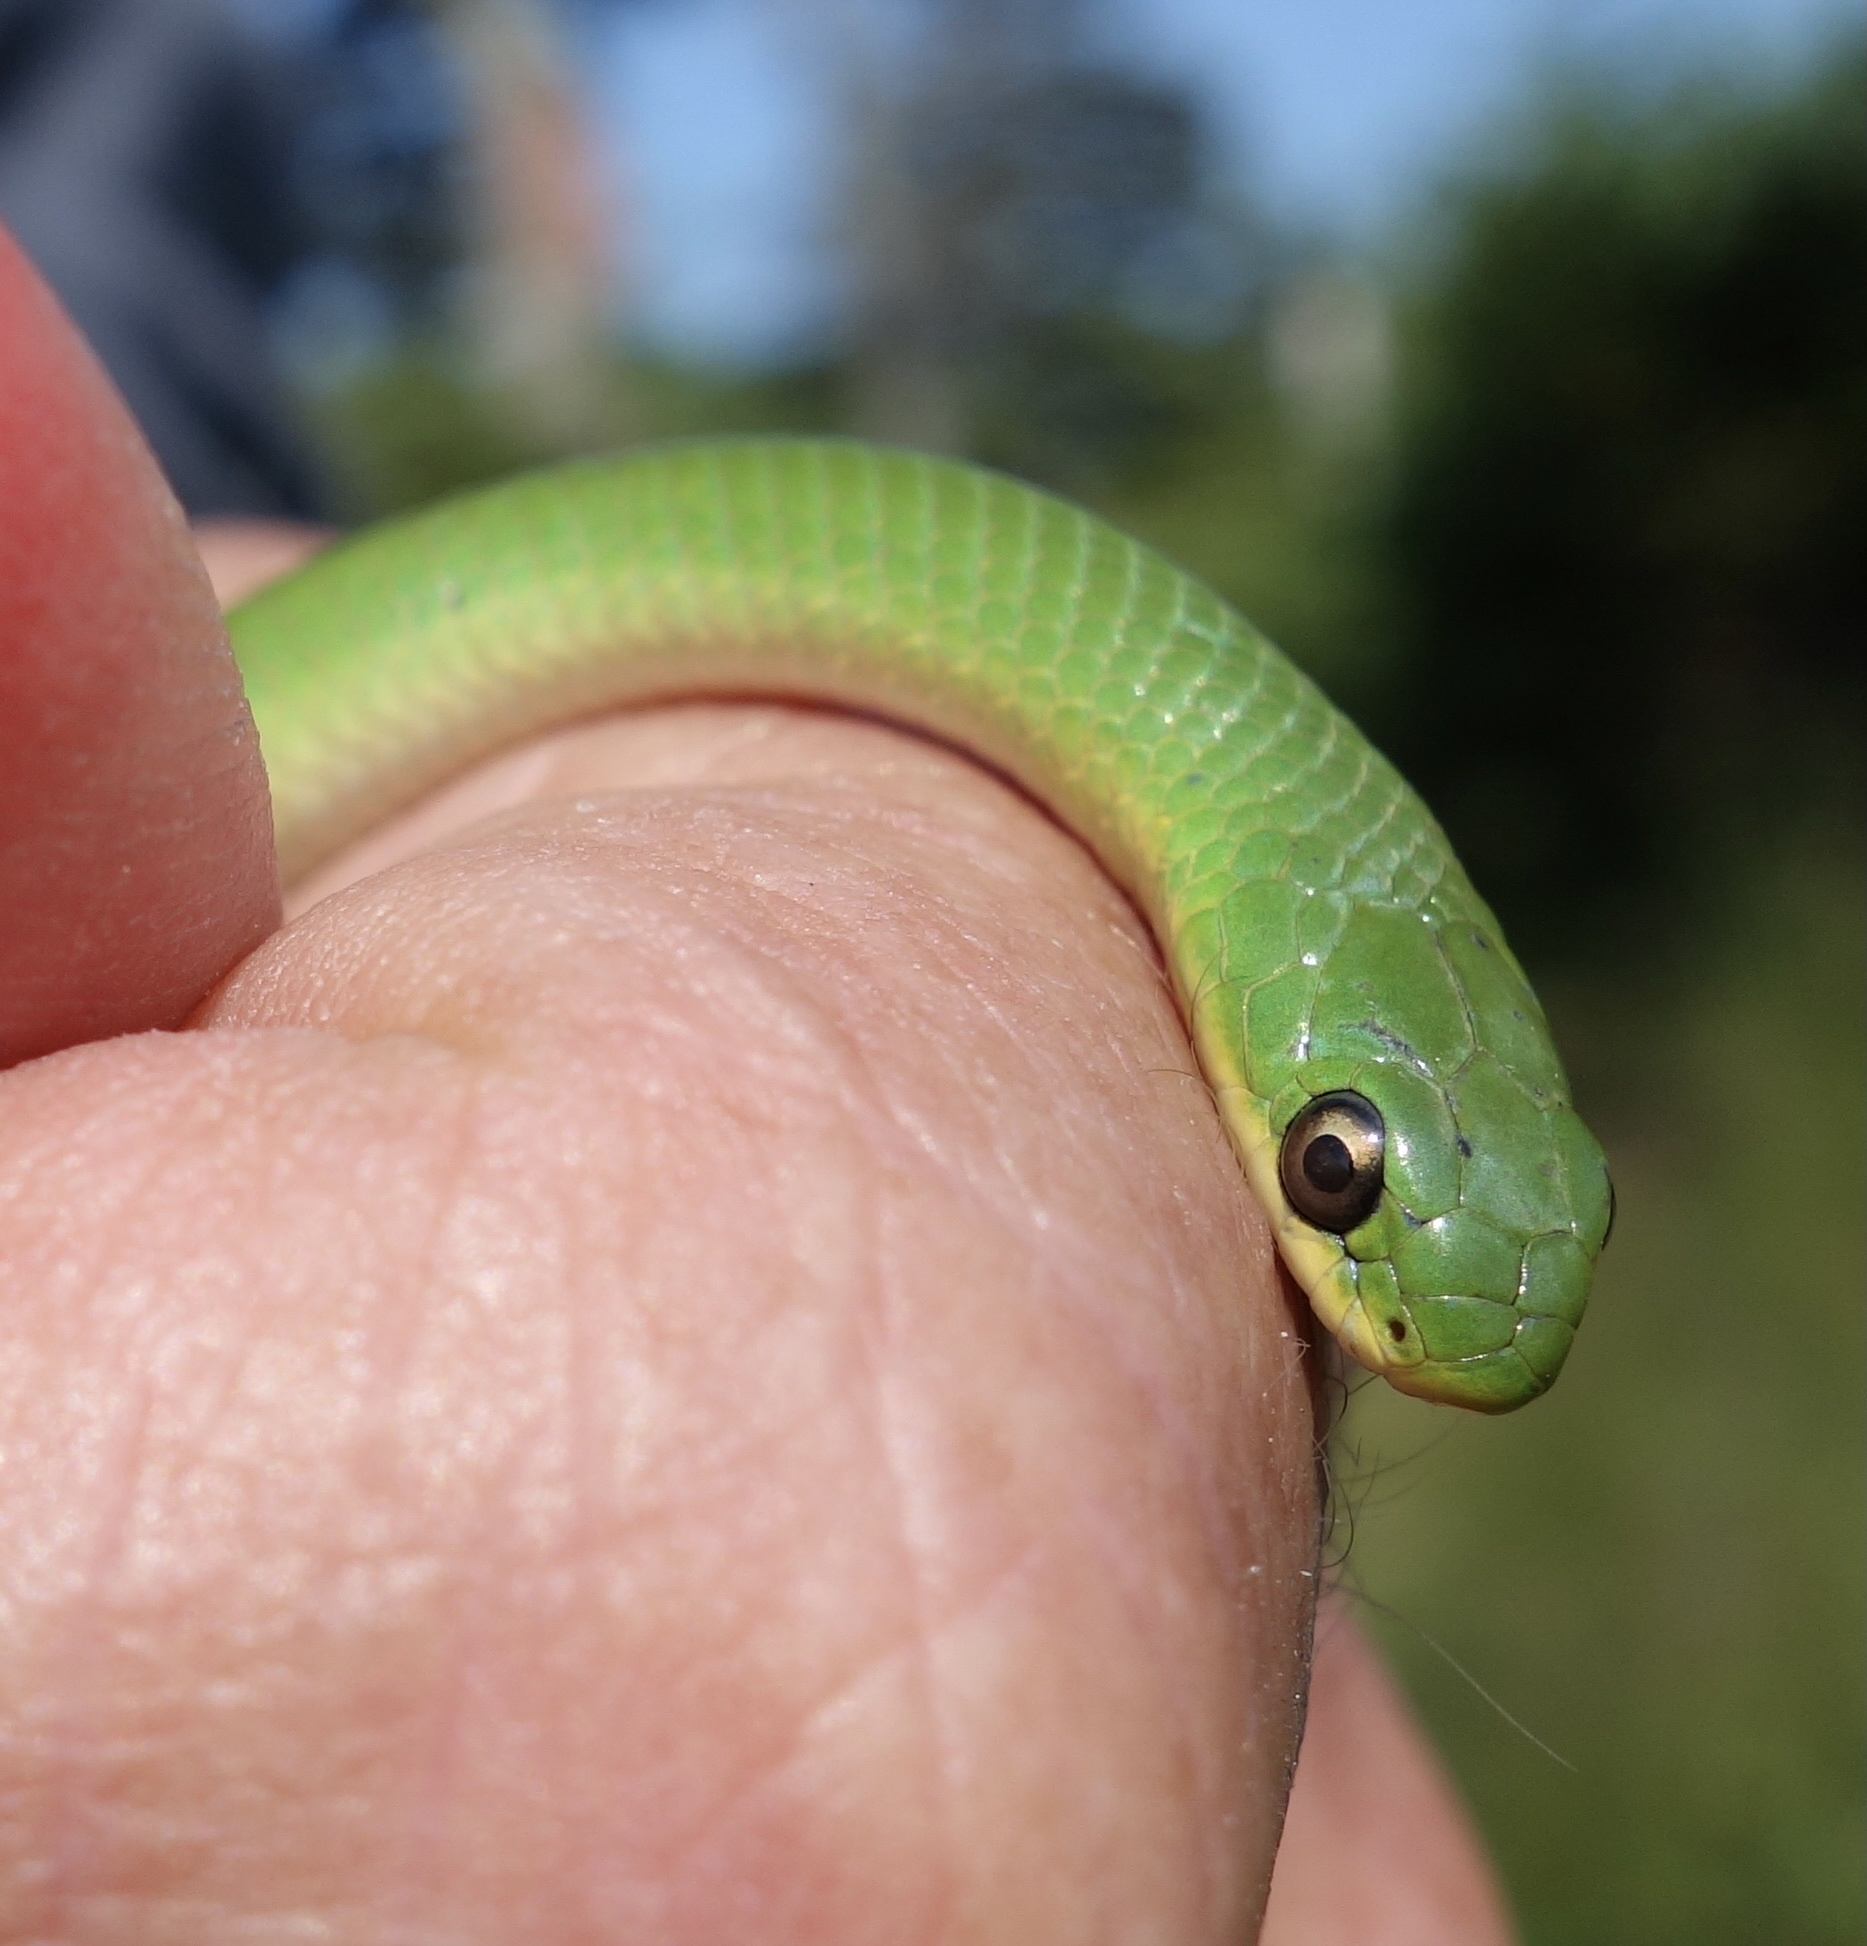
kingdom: Animalia
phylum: Chordata
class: Squamata
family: Colubridae
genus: Opheodrys
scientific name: Opheodrys vernalis
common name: Smooth green snake
